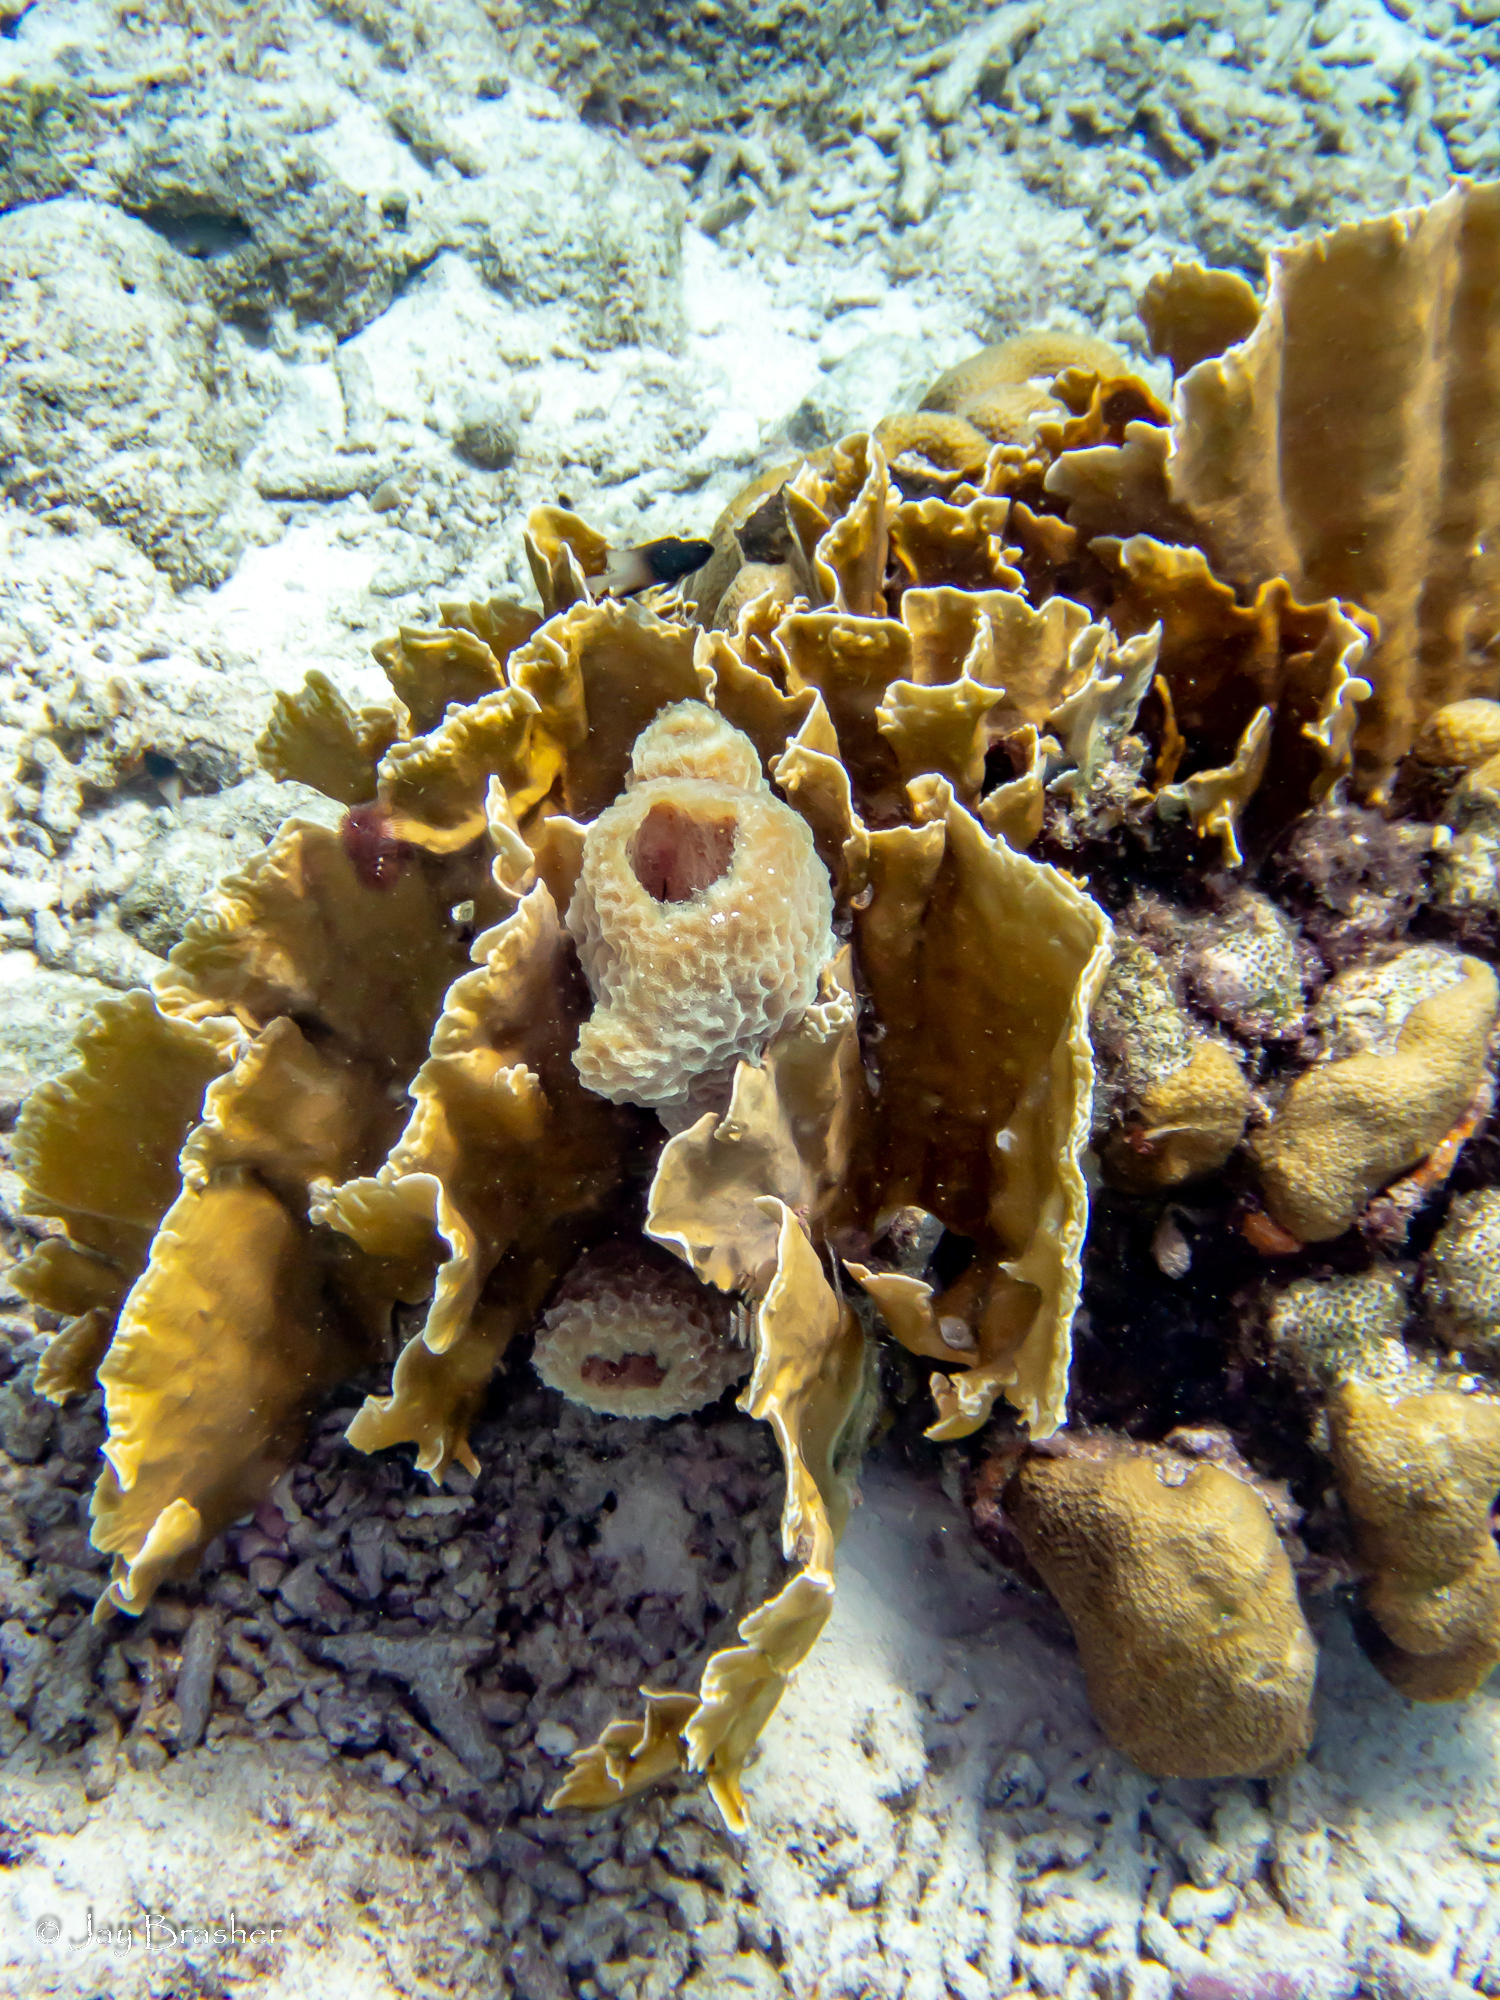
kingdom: Animalia
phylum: Cnidaria
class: Anthozoa
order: Scleractinia
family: Merulinidae
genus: Orbicella
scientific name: Orbicella annularis
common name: Boulder star coral
